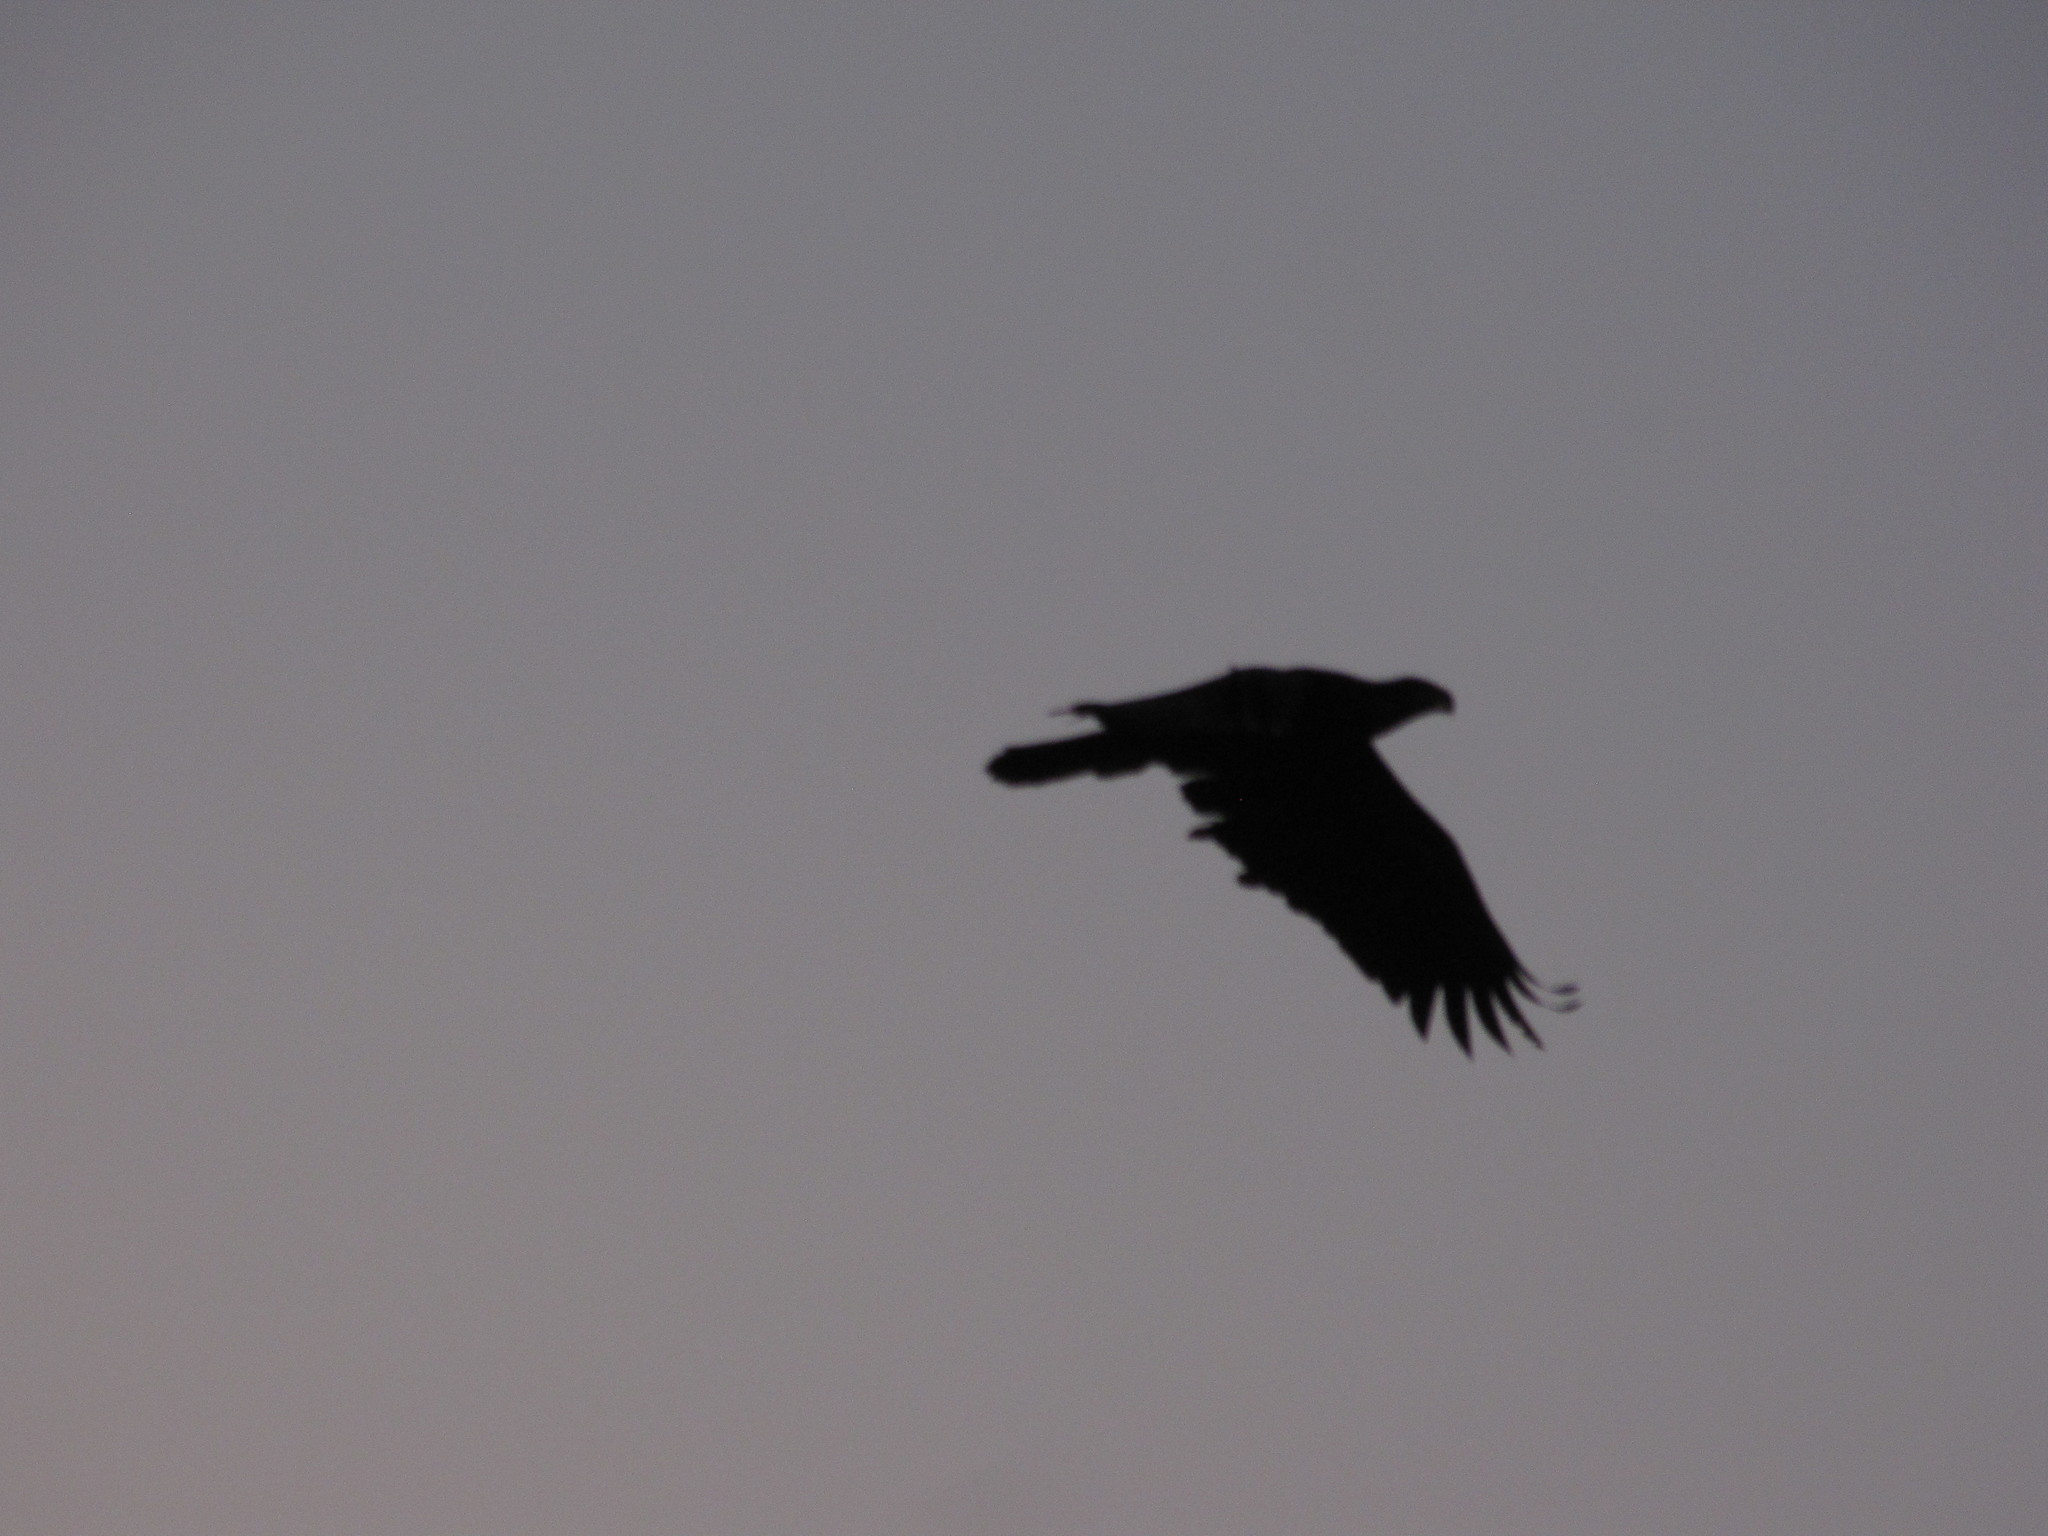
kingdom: Animalia
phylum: Chordata
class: Aves
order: Accipitriformes
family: Accipitridae
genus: Haliaeetus
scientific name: Haliaeetus leucocephalus
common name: Bald eagle
